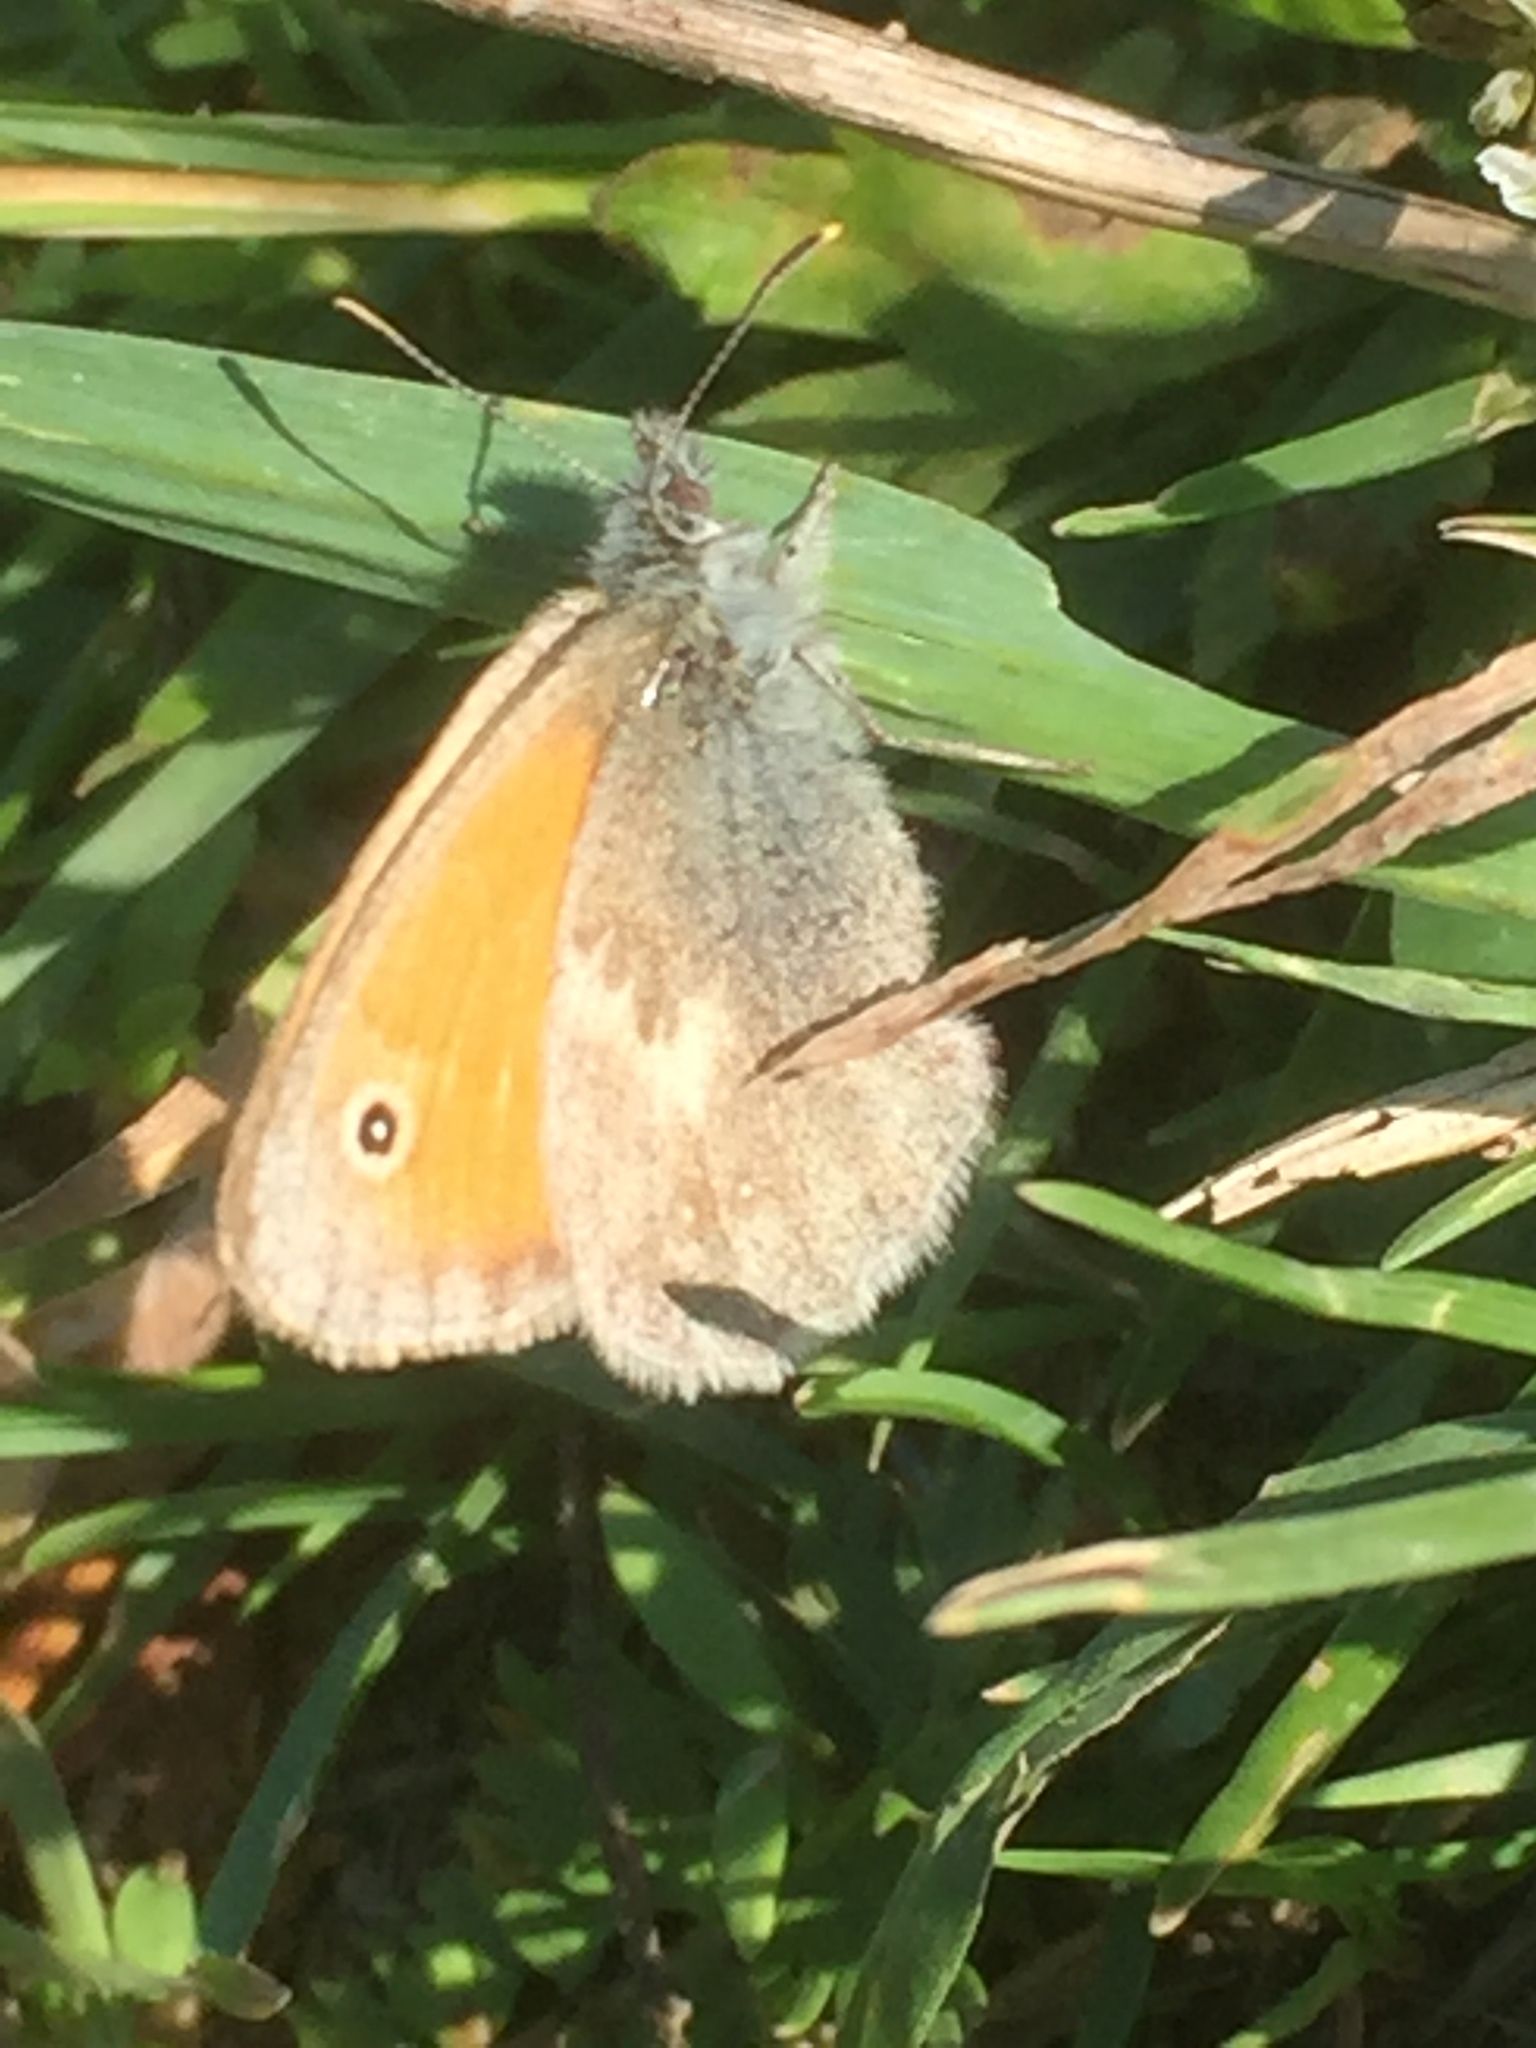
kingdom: Animalia
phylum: Arthropoda
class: Insecta
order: Lepidoptera
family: Nymphalidae
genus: Coenonympha
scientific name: Coenonympha pamphilus
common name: Small heath
